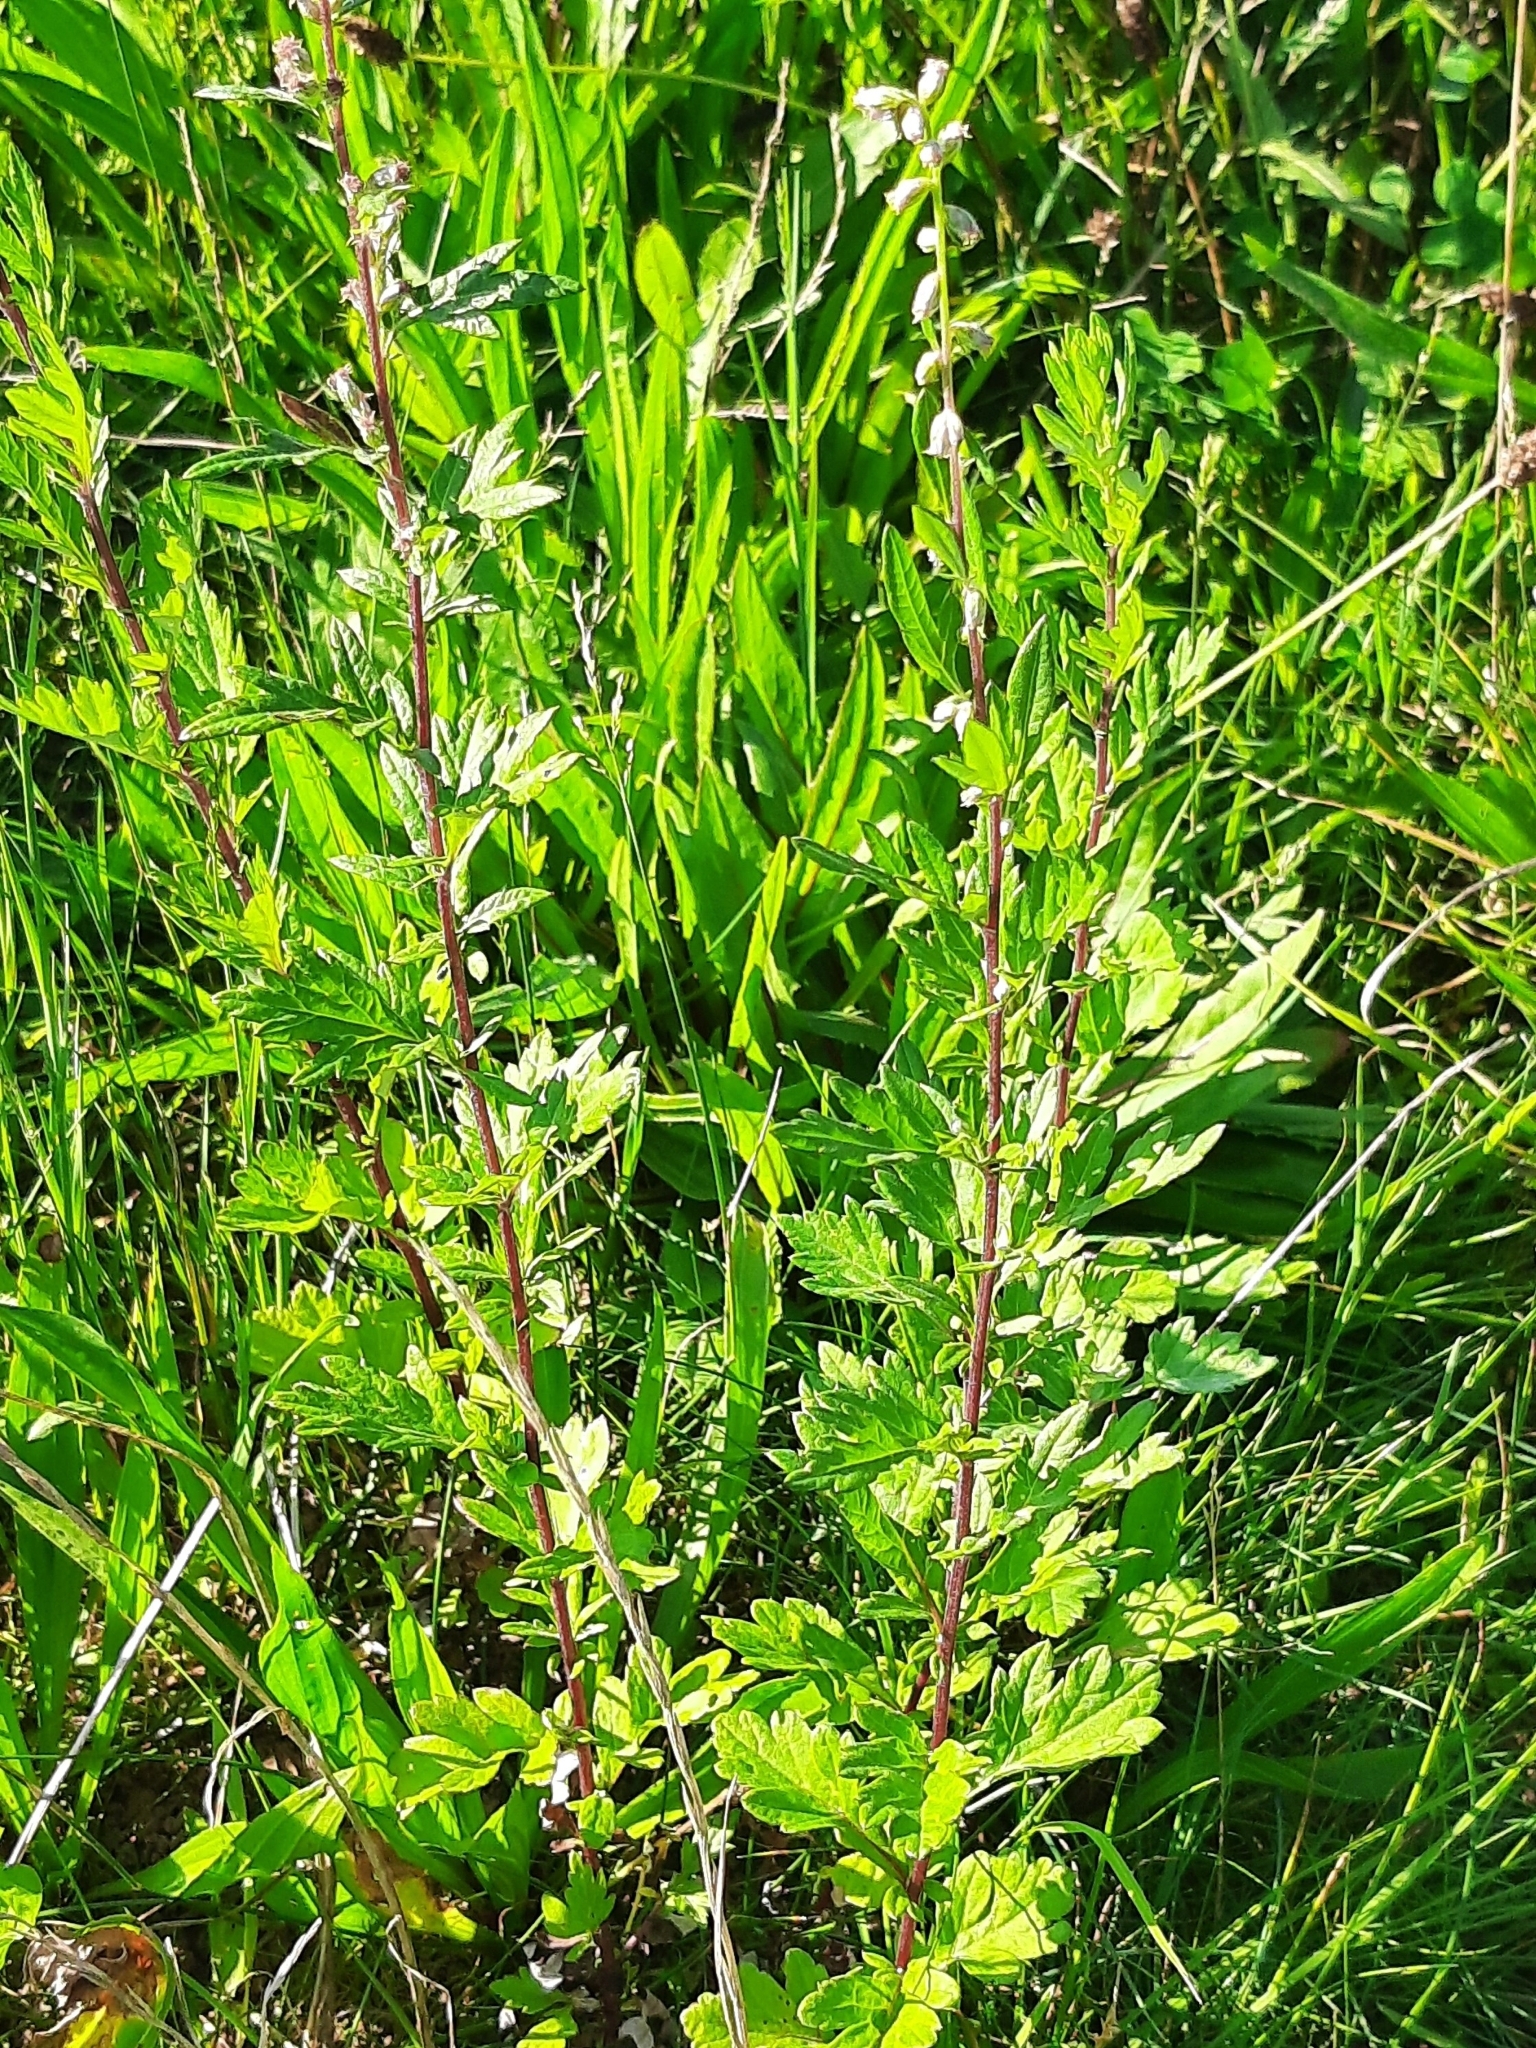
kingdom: Plantae
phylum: Tracheophyta
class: Magnoliopsida
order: Asterales
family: Asteraceae
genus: Artemisia
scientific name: Artemisia vulgaris
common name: Mugwort
